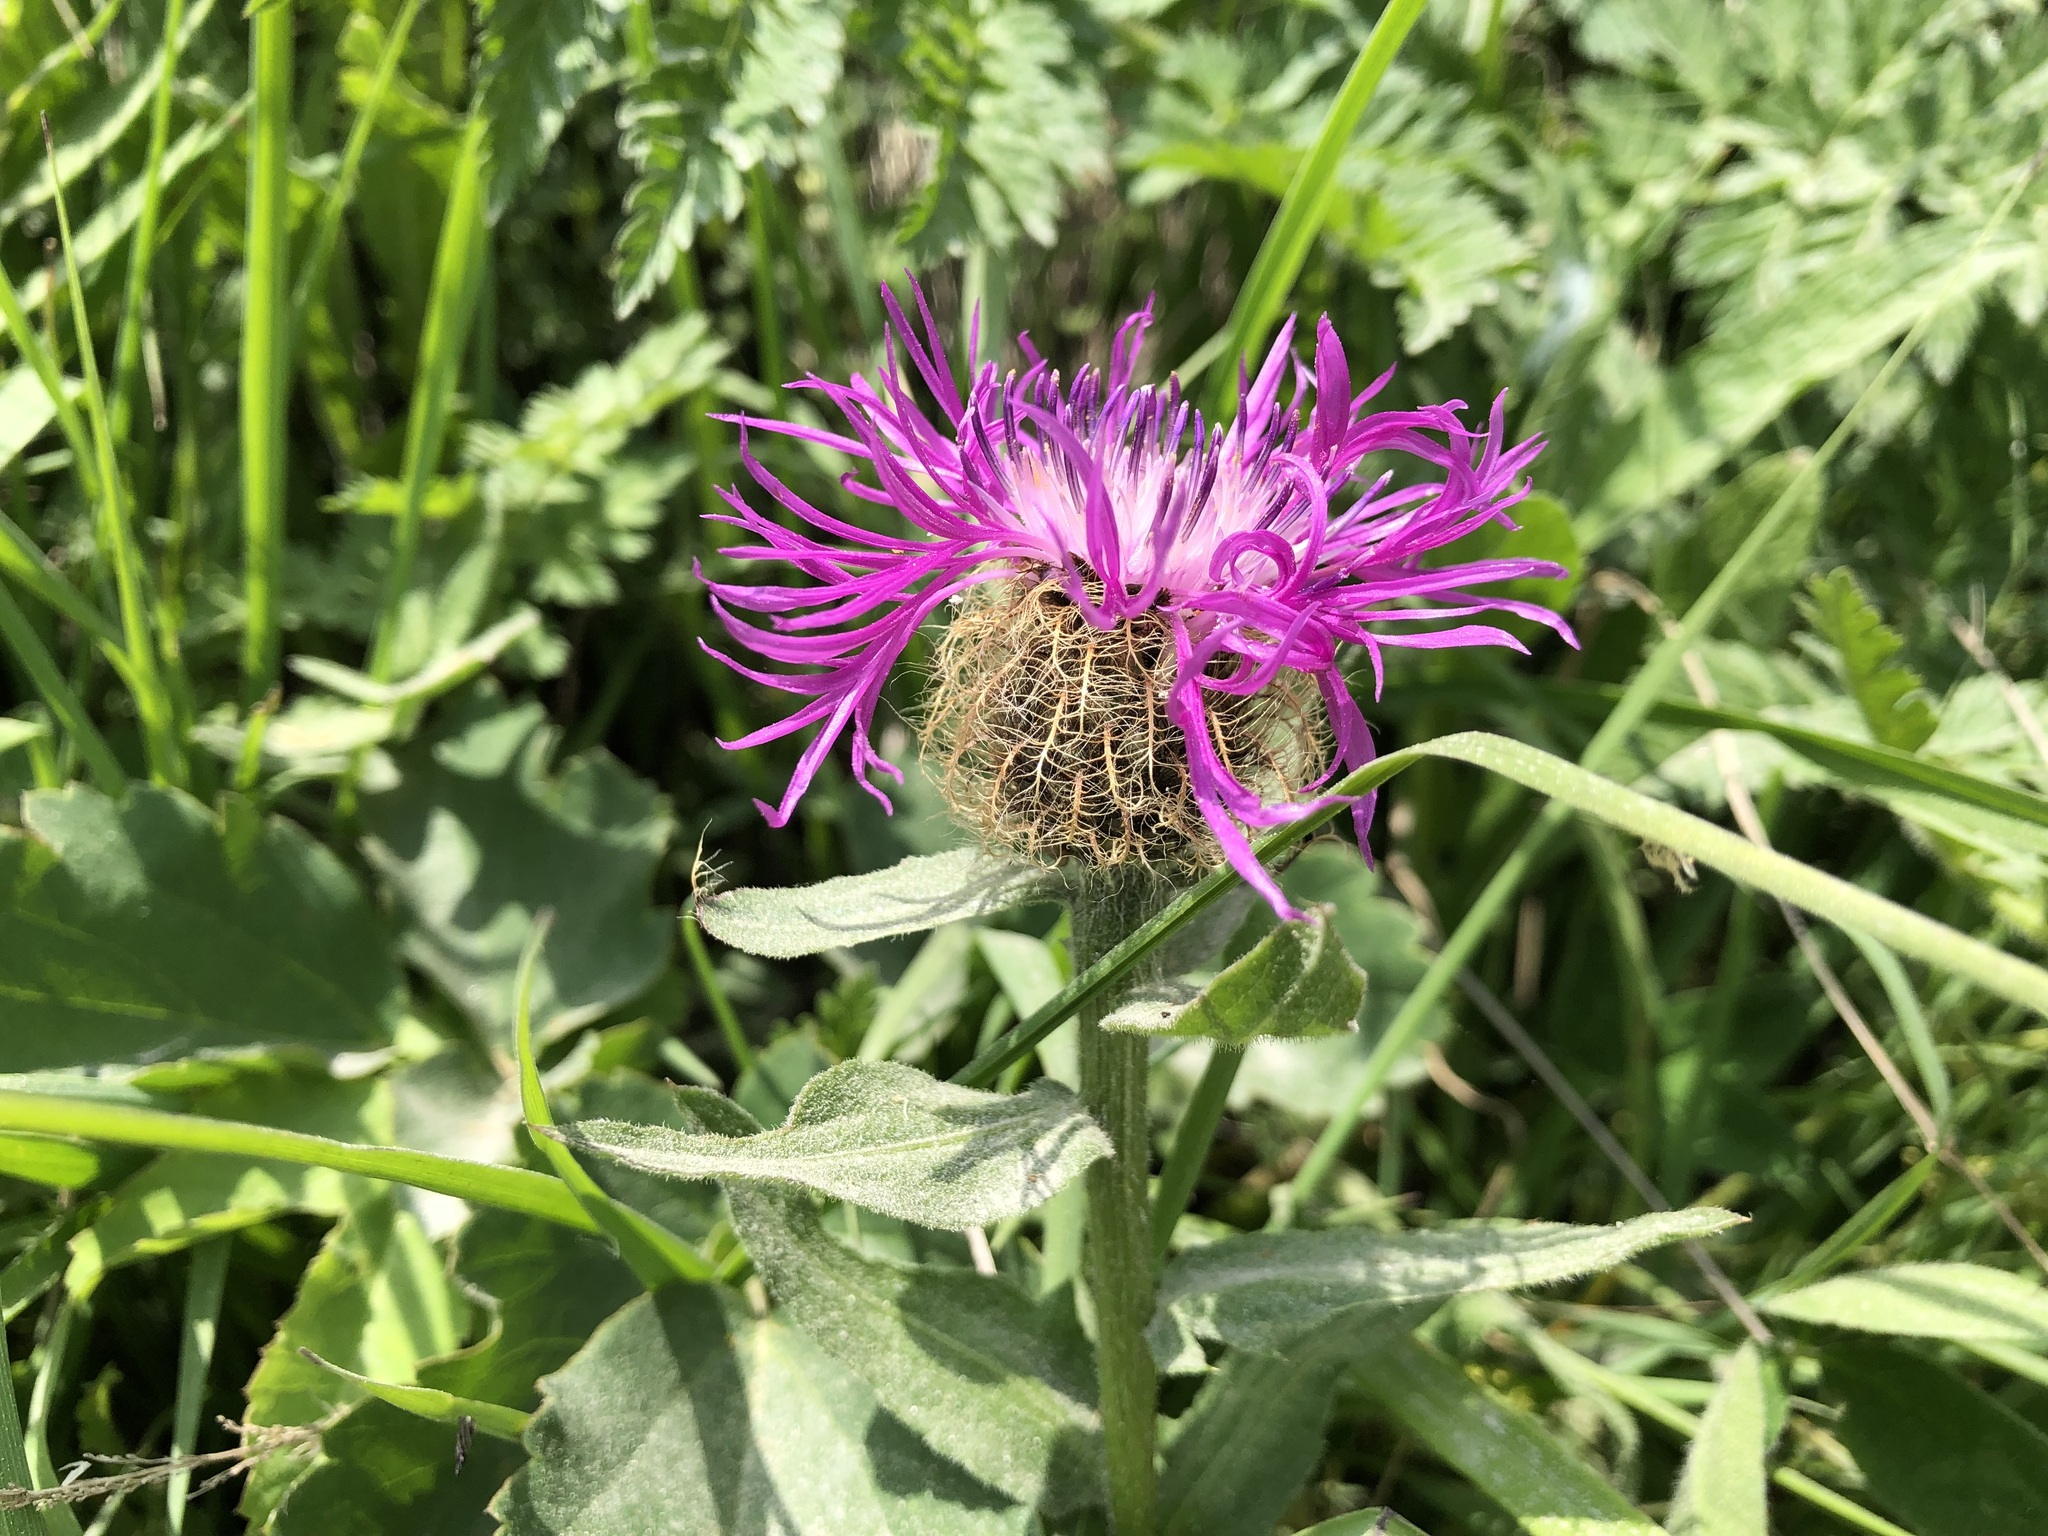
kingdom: Plantae
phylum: Tracheophyta
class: Magnoliopsida
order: Asterales
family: Asteraceae
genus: Centaurea
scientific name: Centaurea nervosa
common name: Singleflower knapweed
